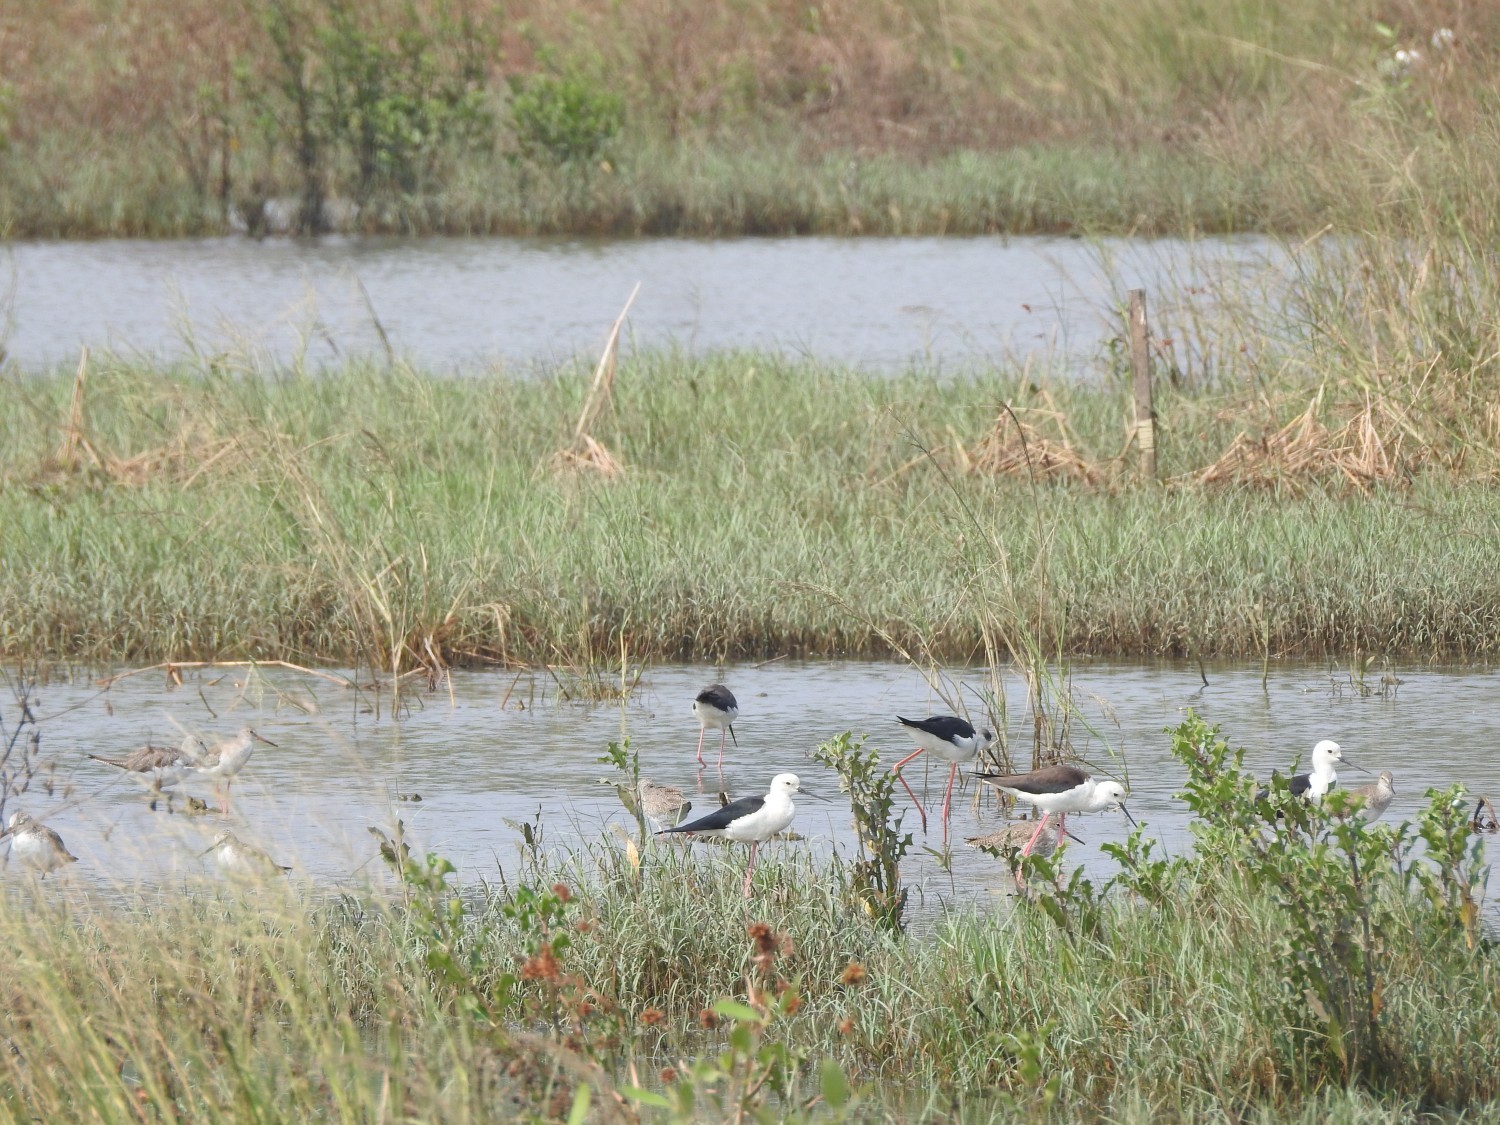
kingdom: Animalia
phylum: Chordata
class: Aves
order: Charadriiformes
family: Recurvirostridae
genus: Himantopus
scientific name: Himantopus himantopus
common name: Black-winged stilt
